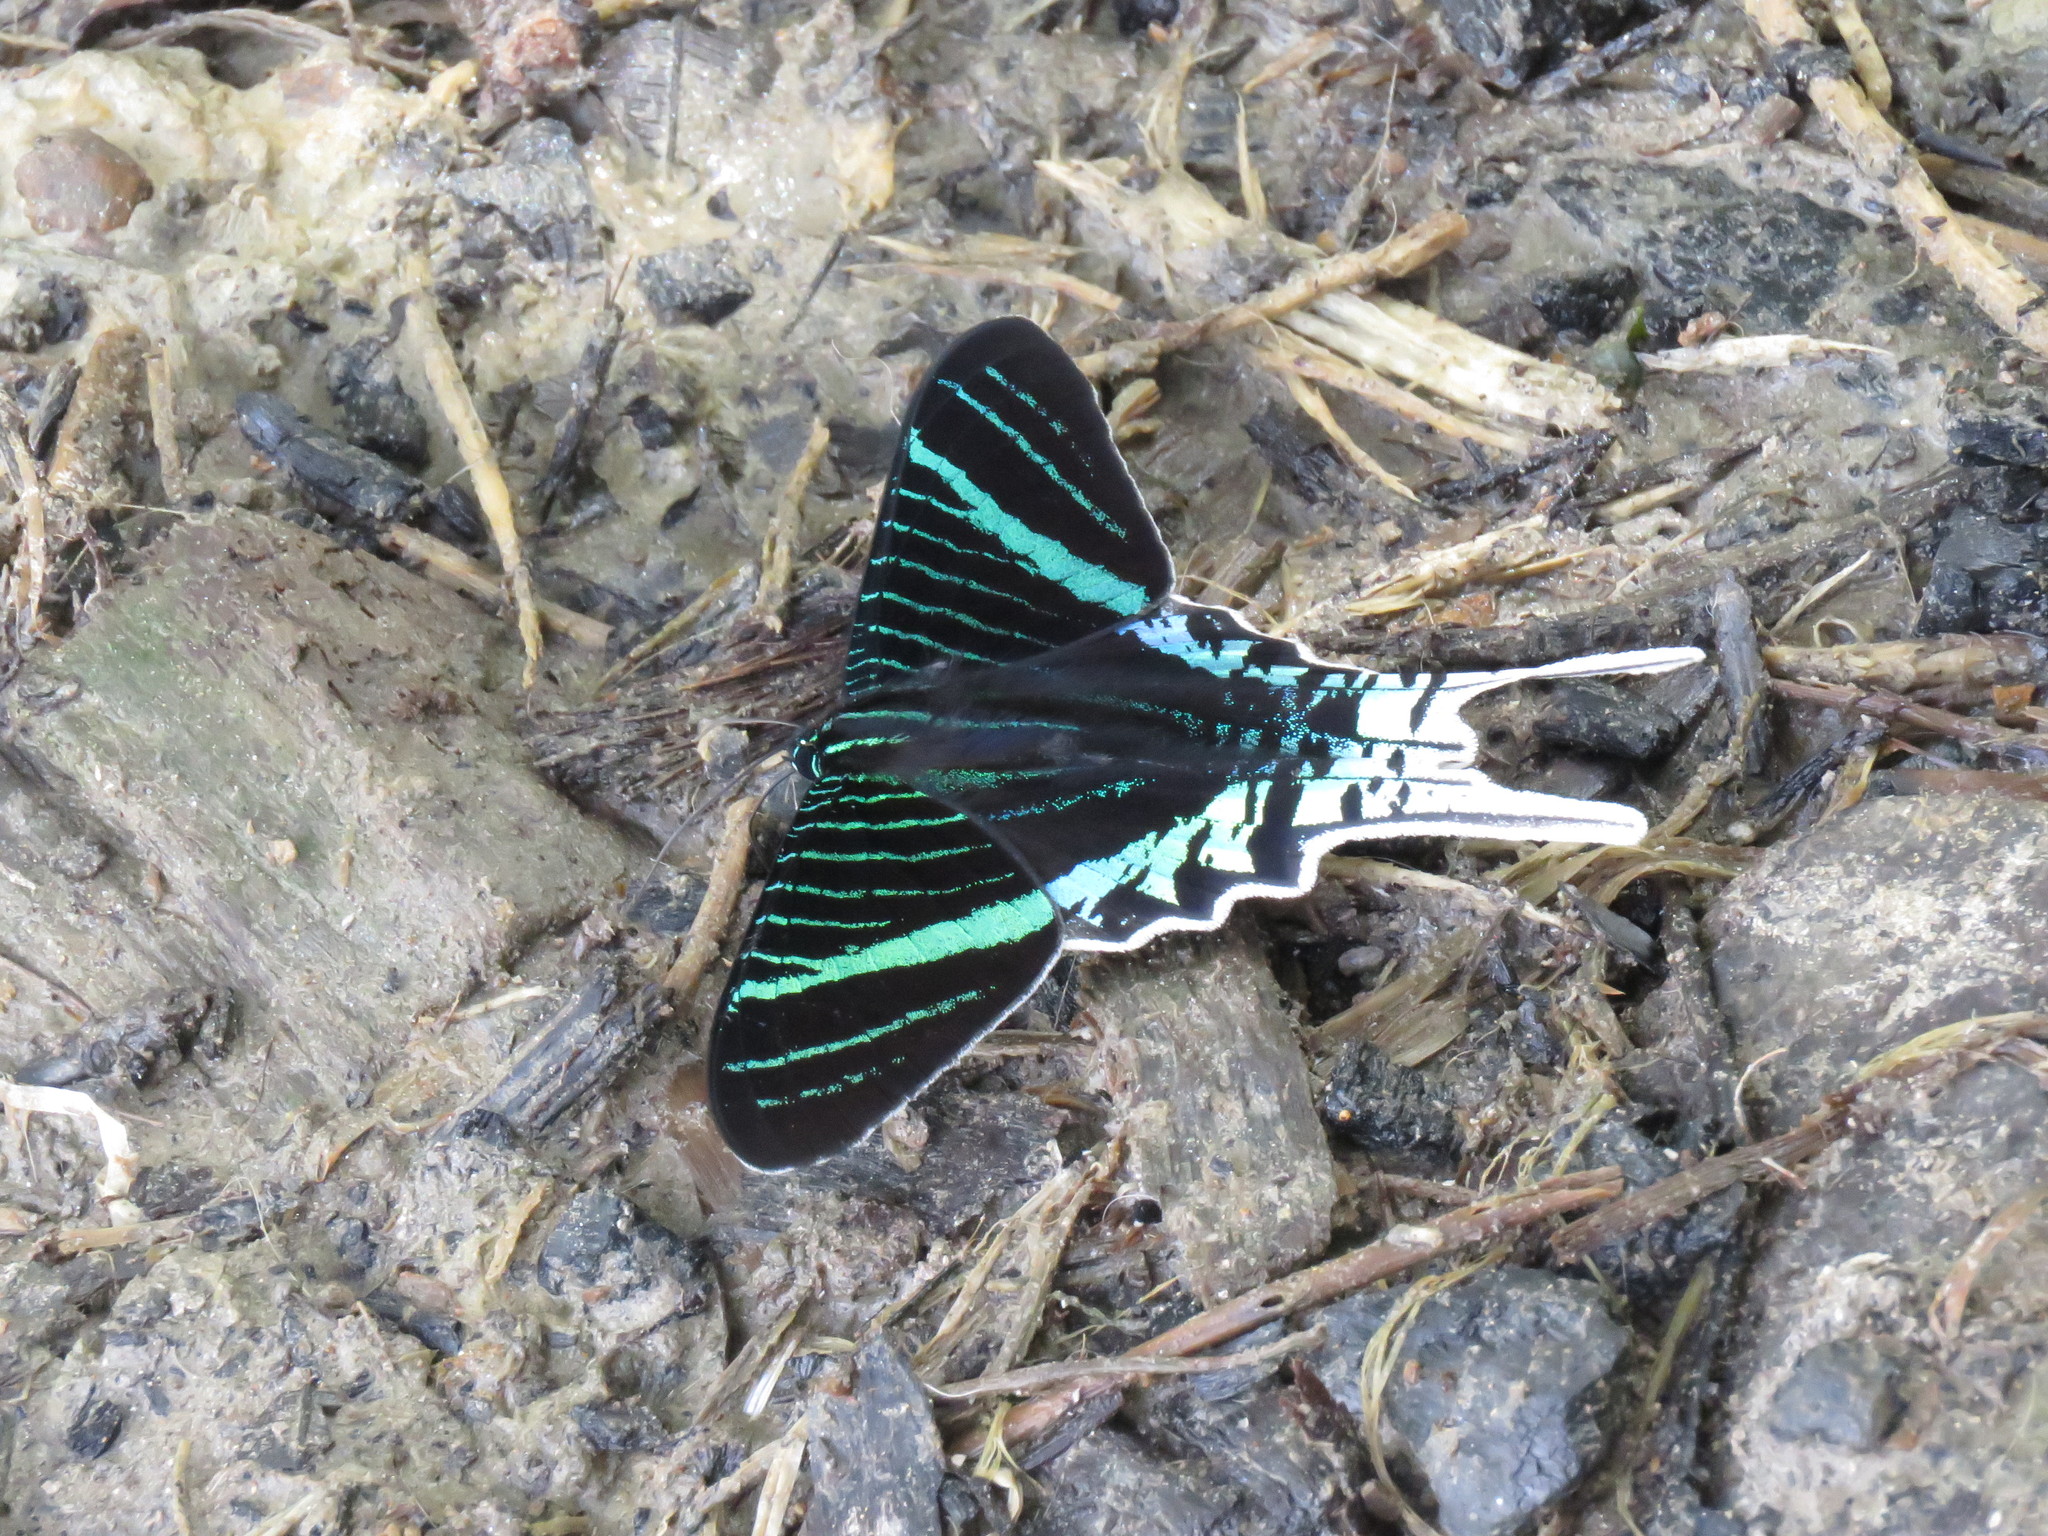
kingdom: Animalia
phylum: Arthropoda
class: Insecta
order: Lepidoptera
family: Uraniidae
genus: Urania
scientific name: Urania leilus
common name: Peacock moth
